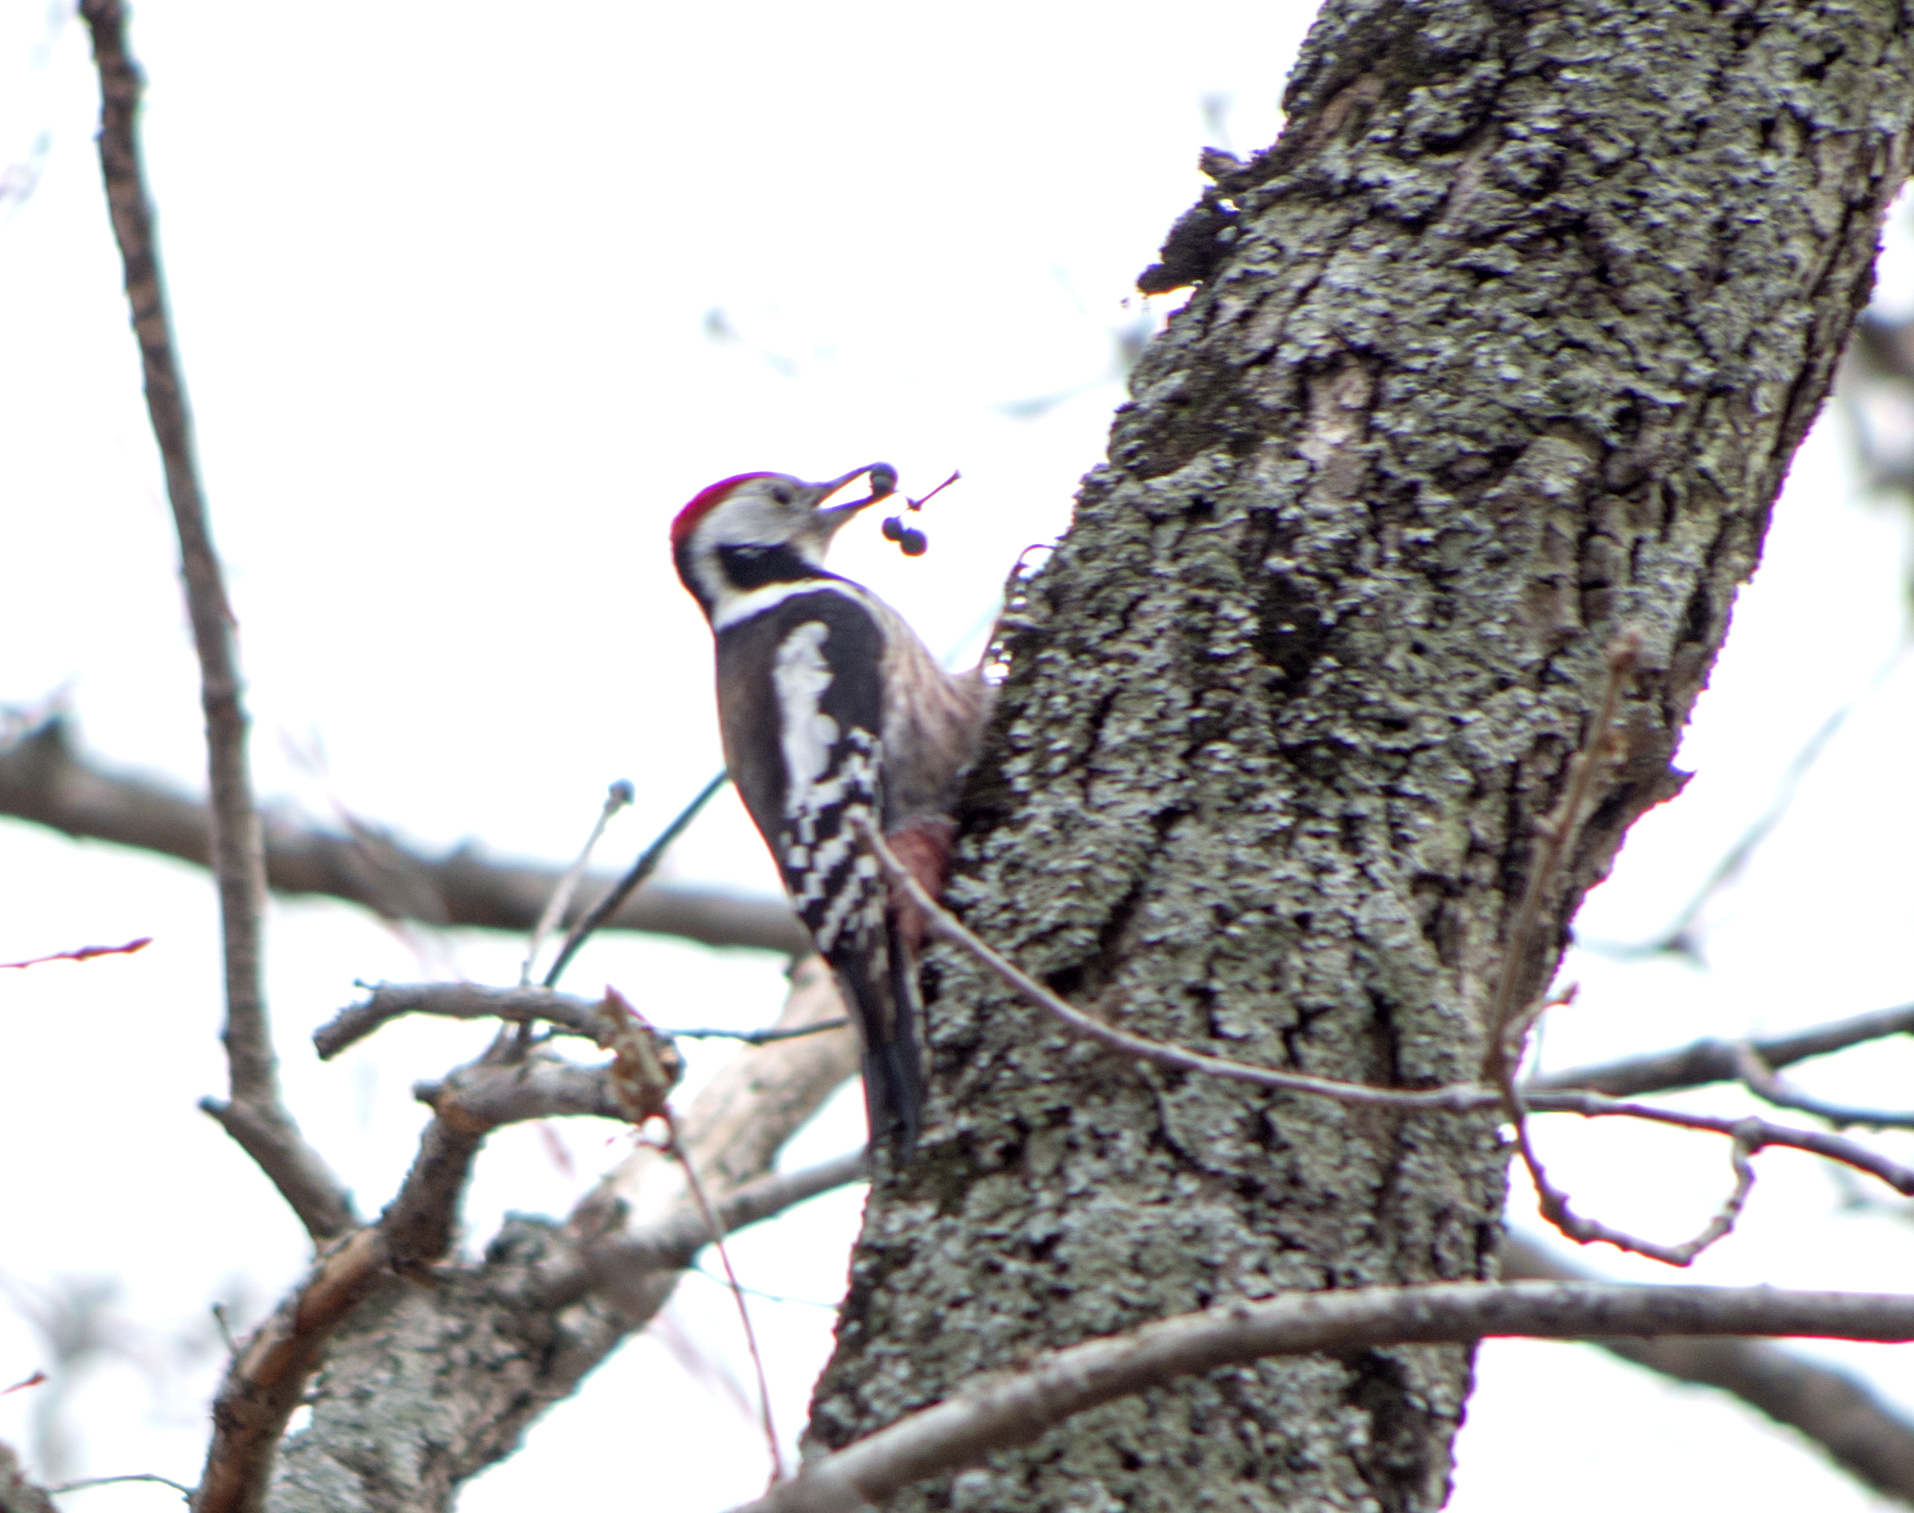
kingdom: Animalia
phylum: Chordata
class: Aves
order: Piciformes
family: Picidae
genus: Dendrocoptes
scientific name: Dendrocoptes medius
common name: Middle spotted woodpecker
